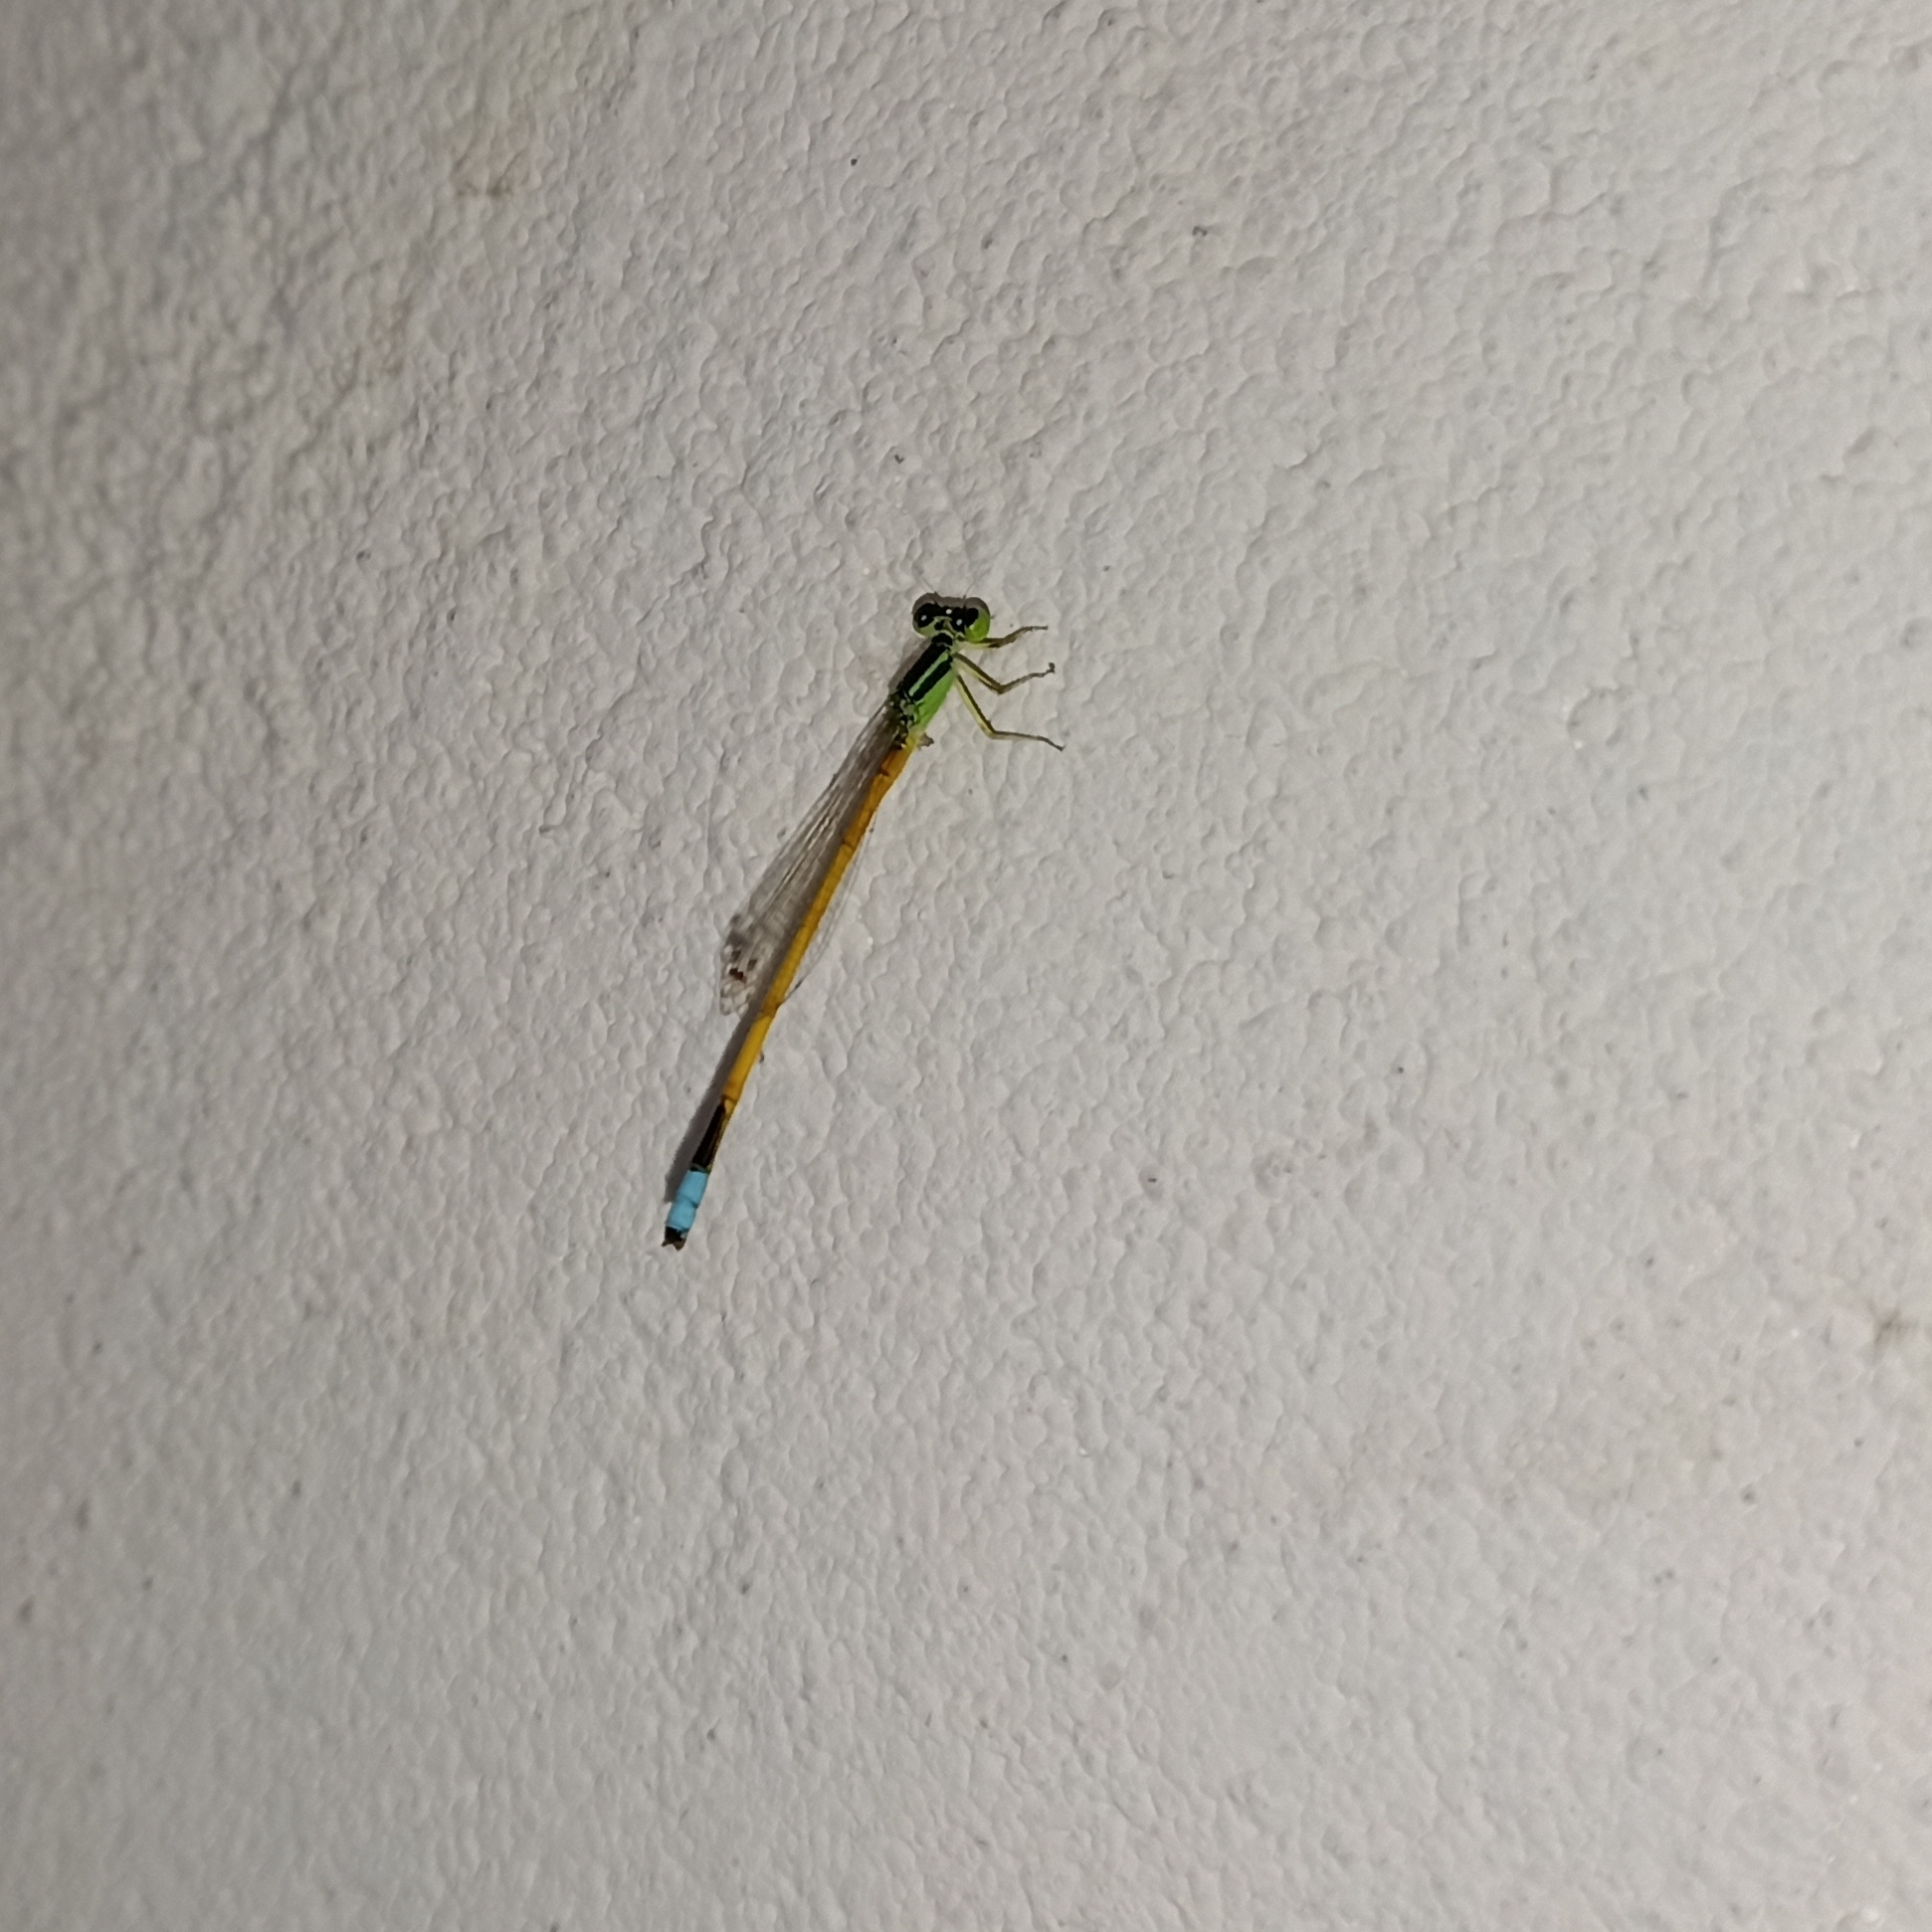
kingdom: Animalia
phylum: Arthropoda
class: Insecta
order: Odonata
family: Coenagrionidae
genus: Ischnura
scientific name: Ischnura rubilio
